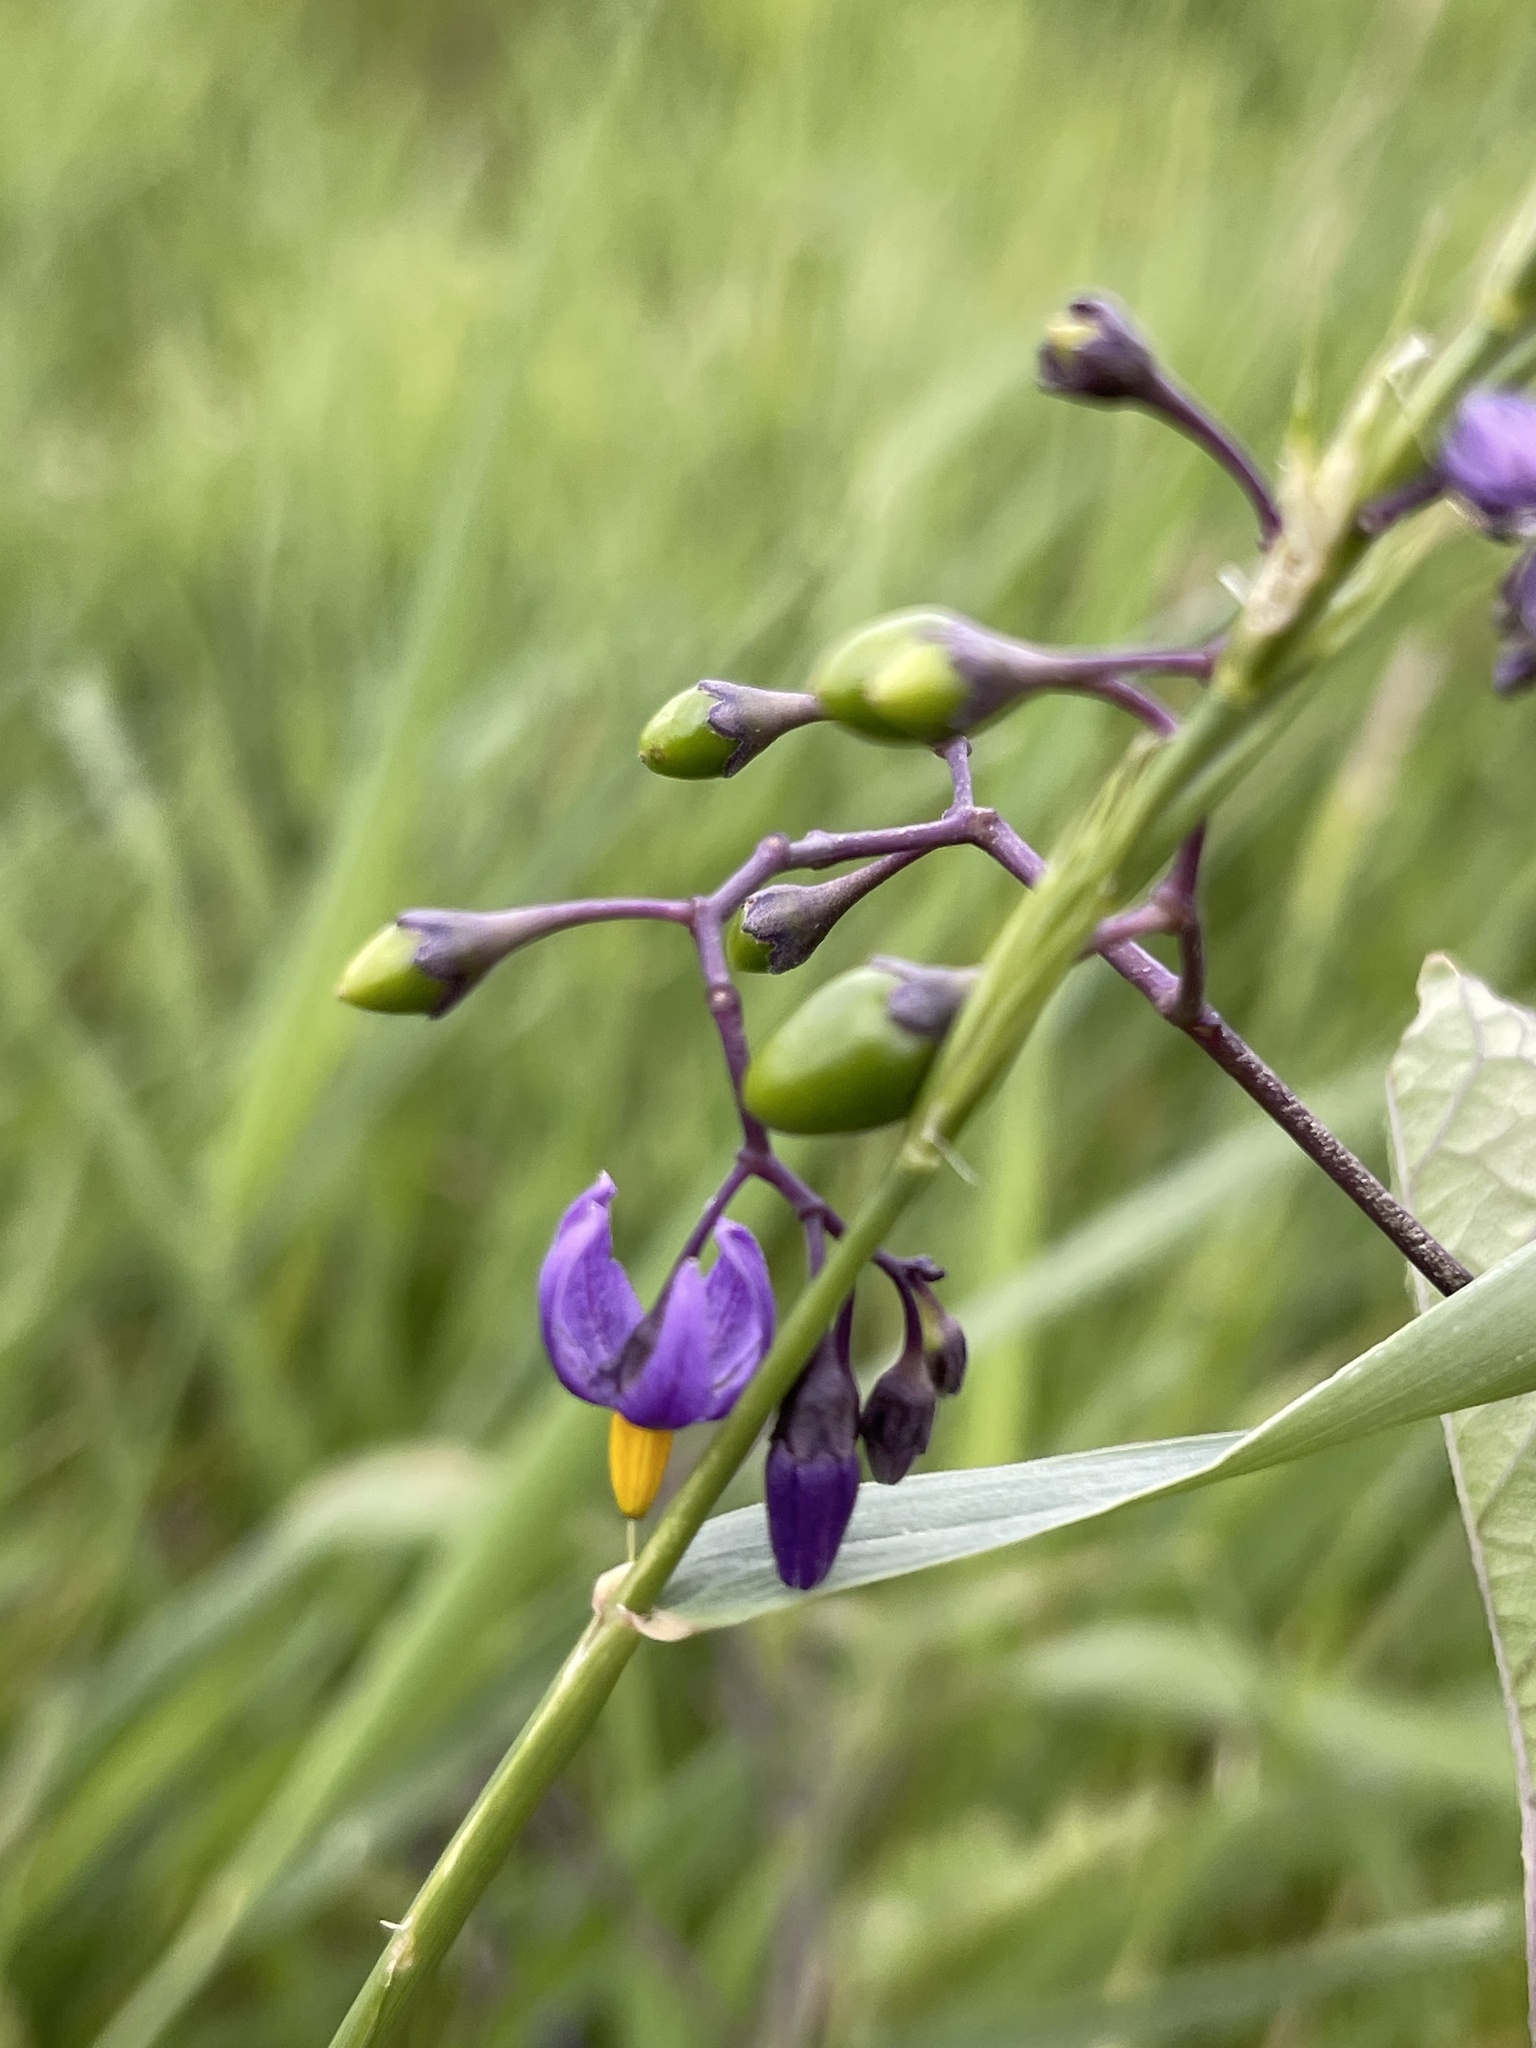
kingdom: Plantae
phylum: Tracheophyta
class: Magnoliopsida
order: Solanales
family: Solanaceae
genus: Solanum
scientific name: Solanum dulcamara
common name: Climbing nightshade
